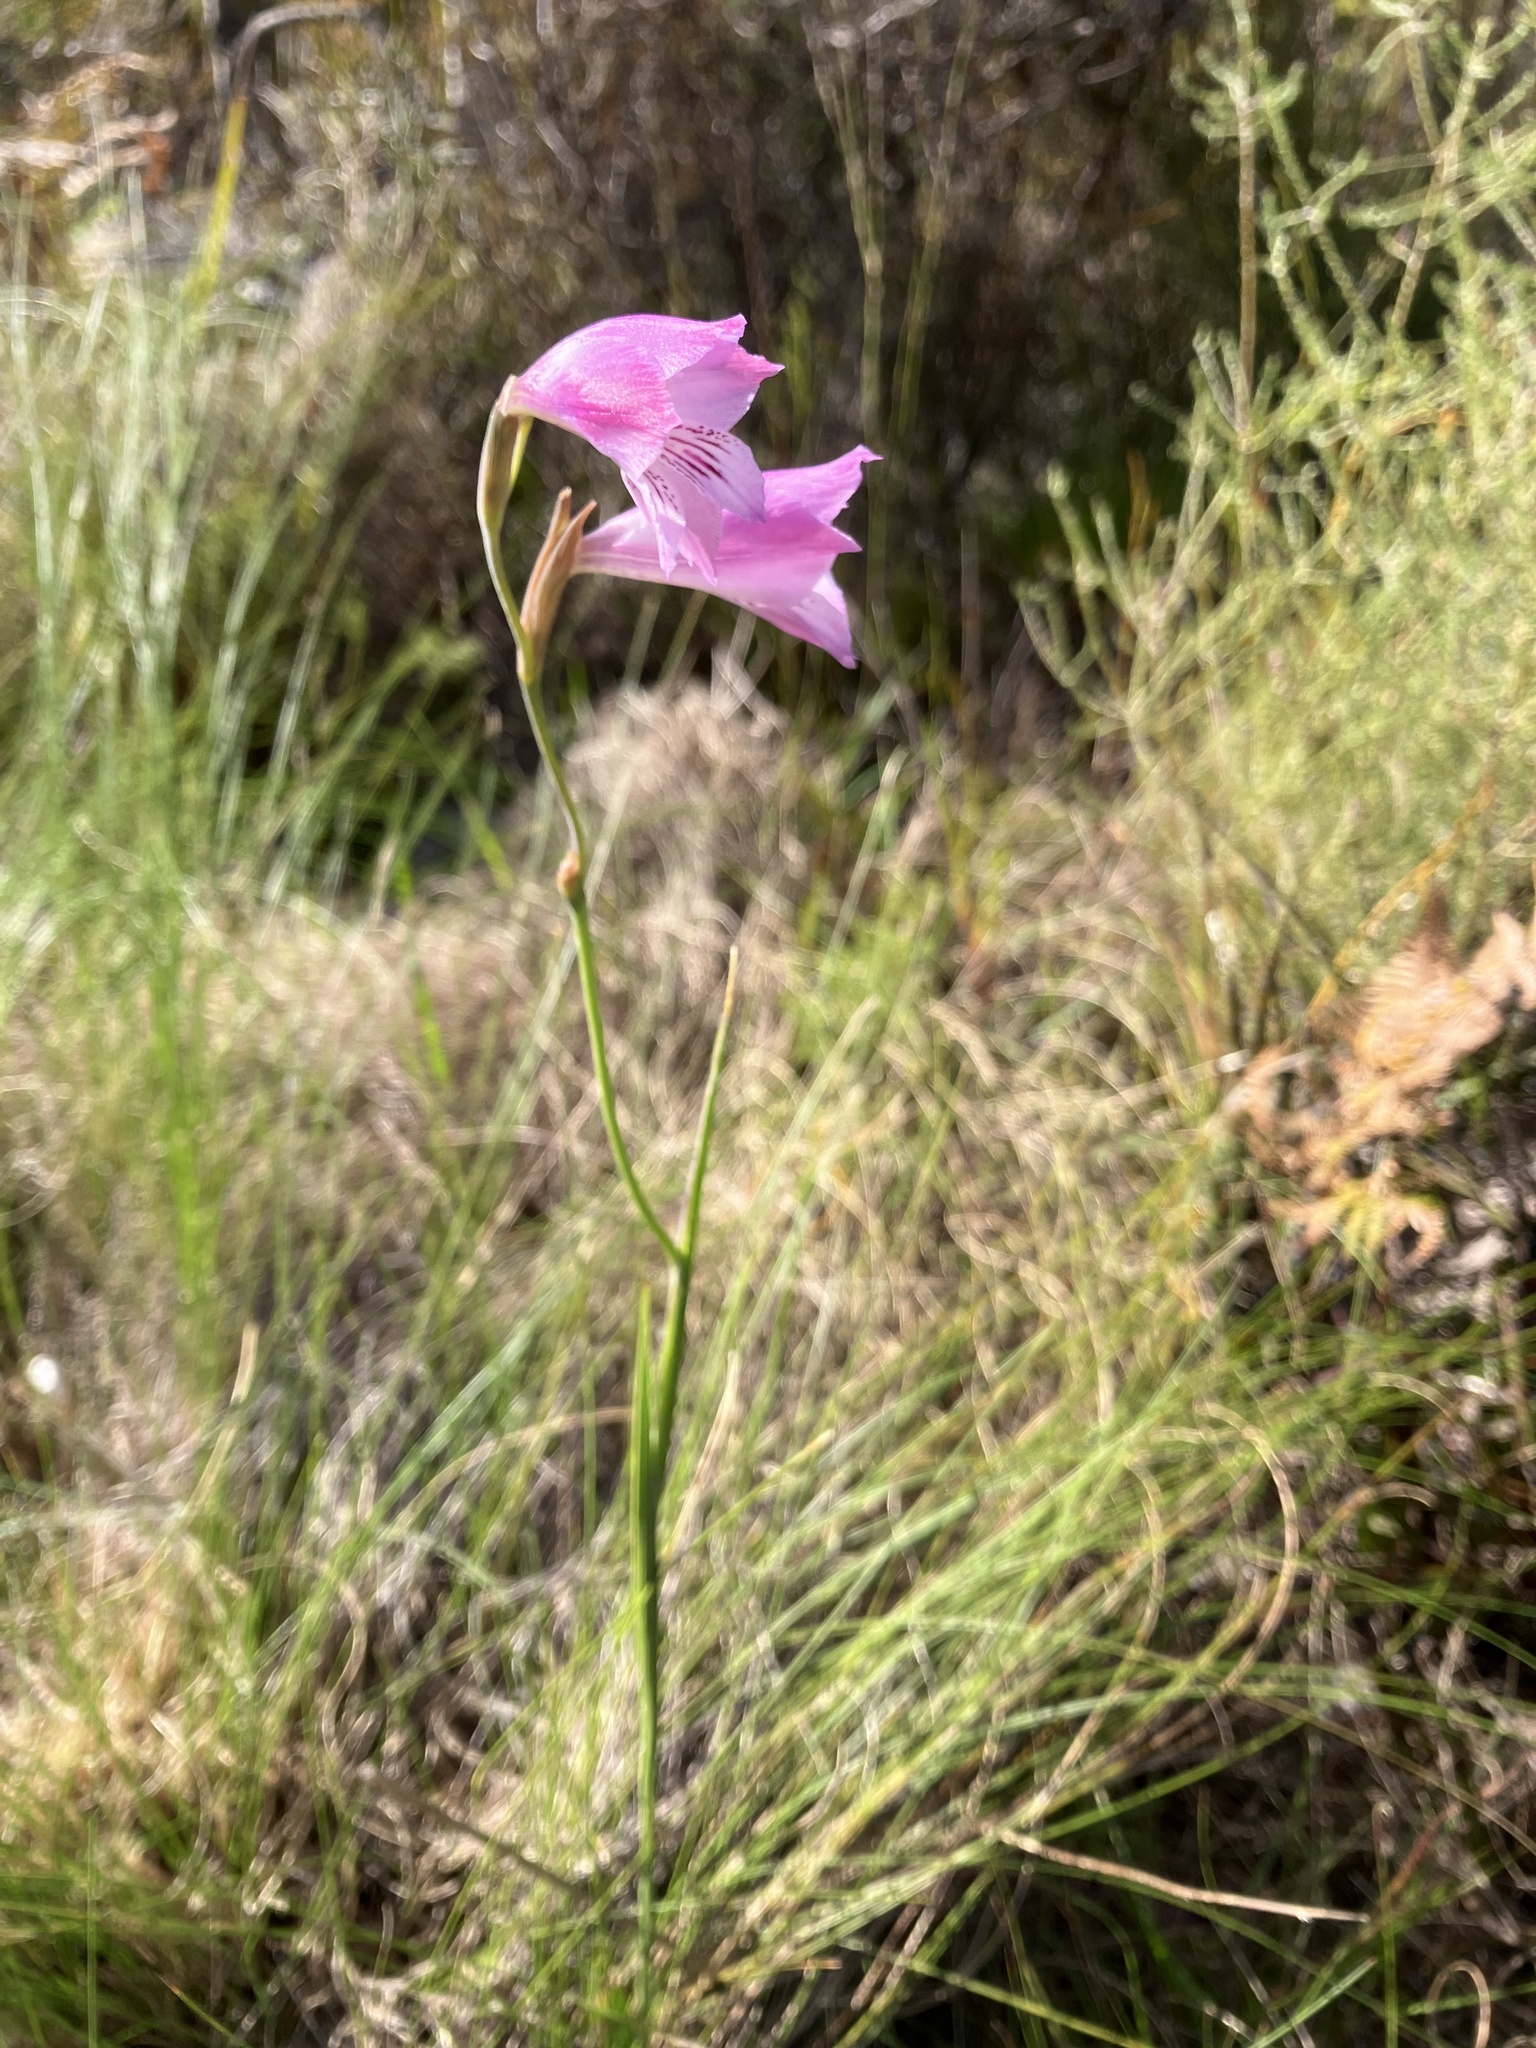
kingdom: Plantae
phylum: Tracheophyta
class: Liliopsida
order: Asparagales
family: Iridaceae
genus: Gladiolus
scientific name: Gladiolus hirsutus
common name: Small pink afrikaner
